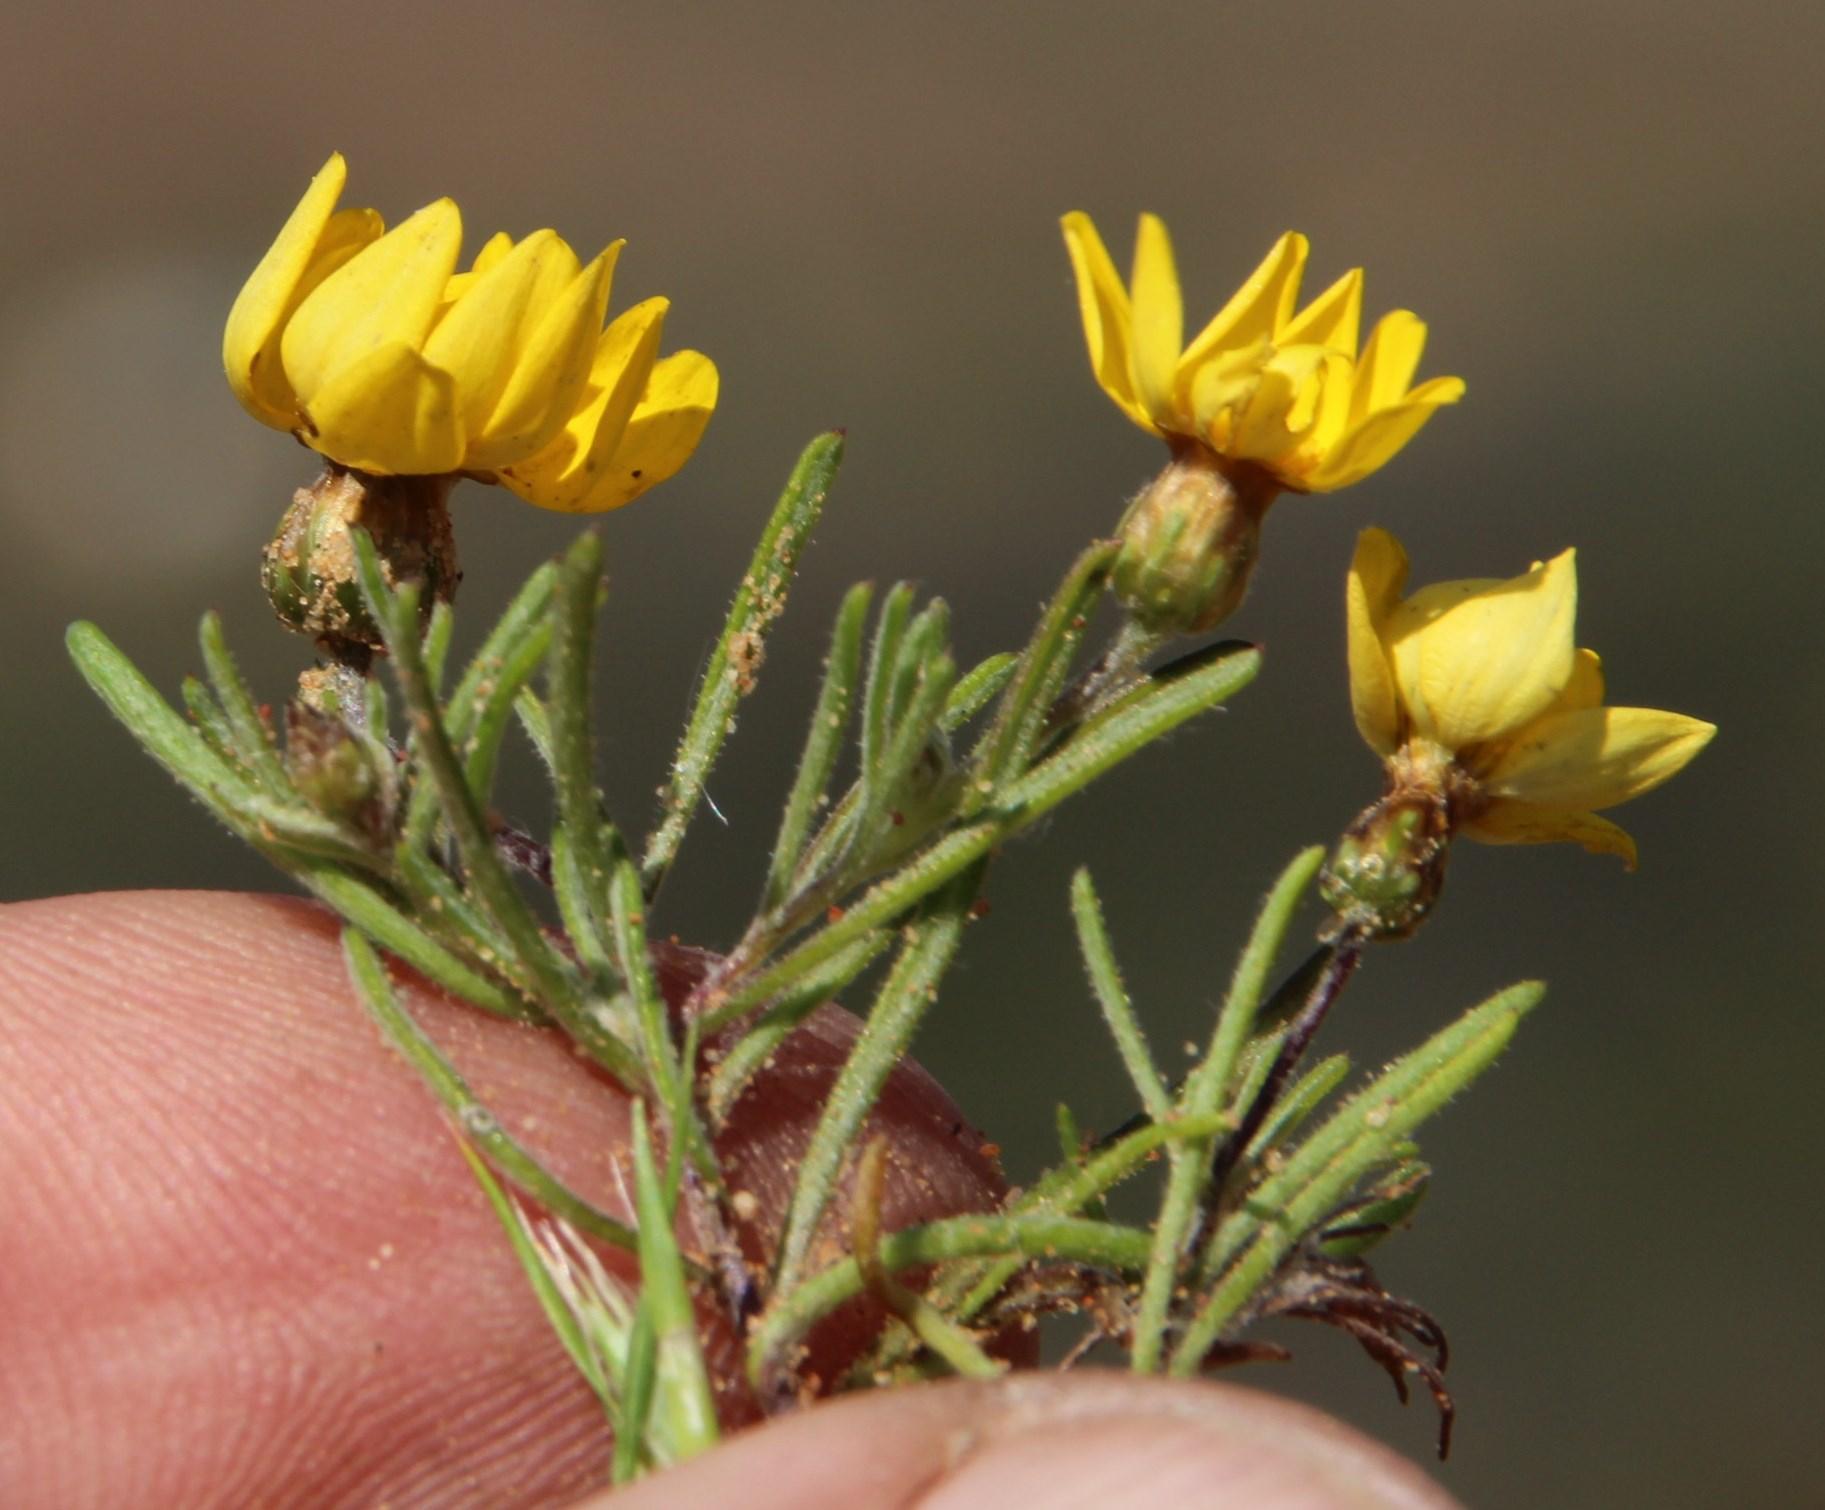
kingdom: Plantae
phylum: Tracheophyta
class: Magnoliopsida
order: Asterales
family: Asteraceae
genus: Rhynchopsidium
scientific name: Rhynchopsidium pumilum
